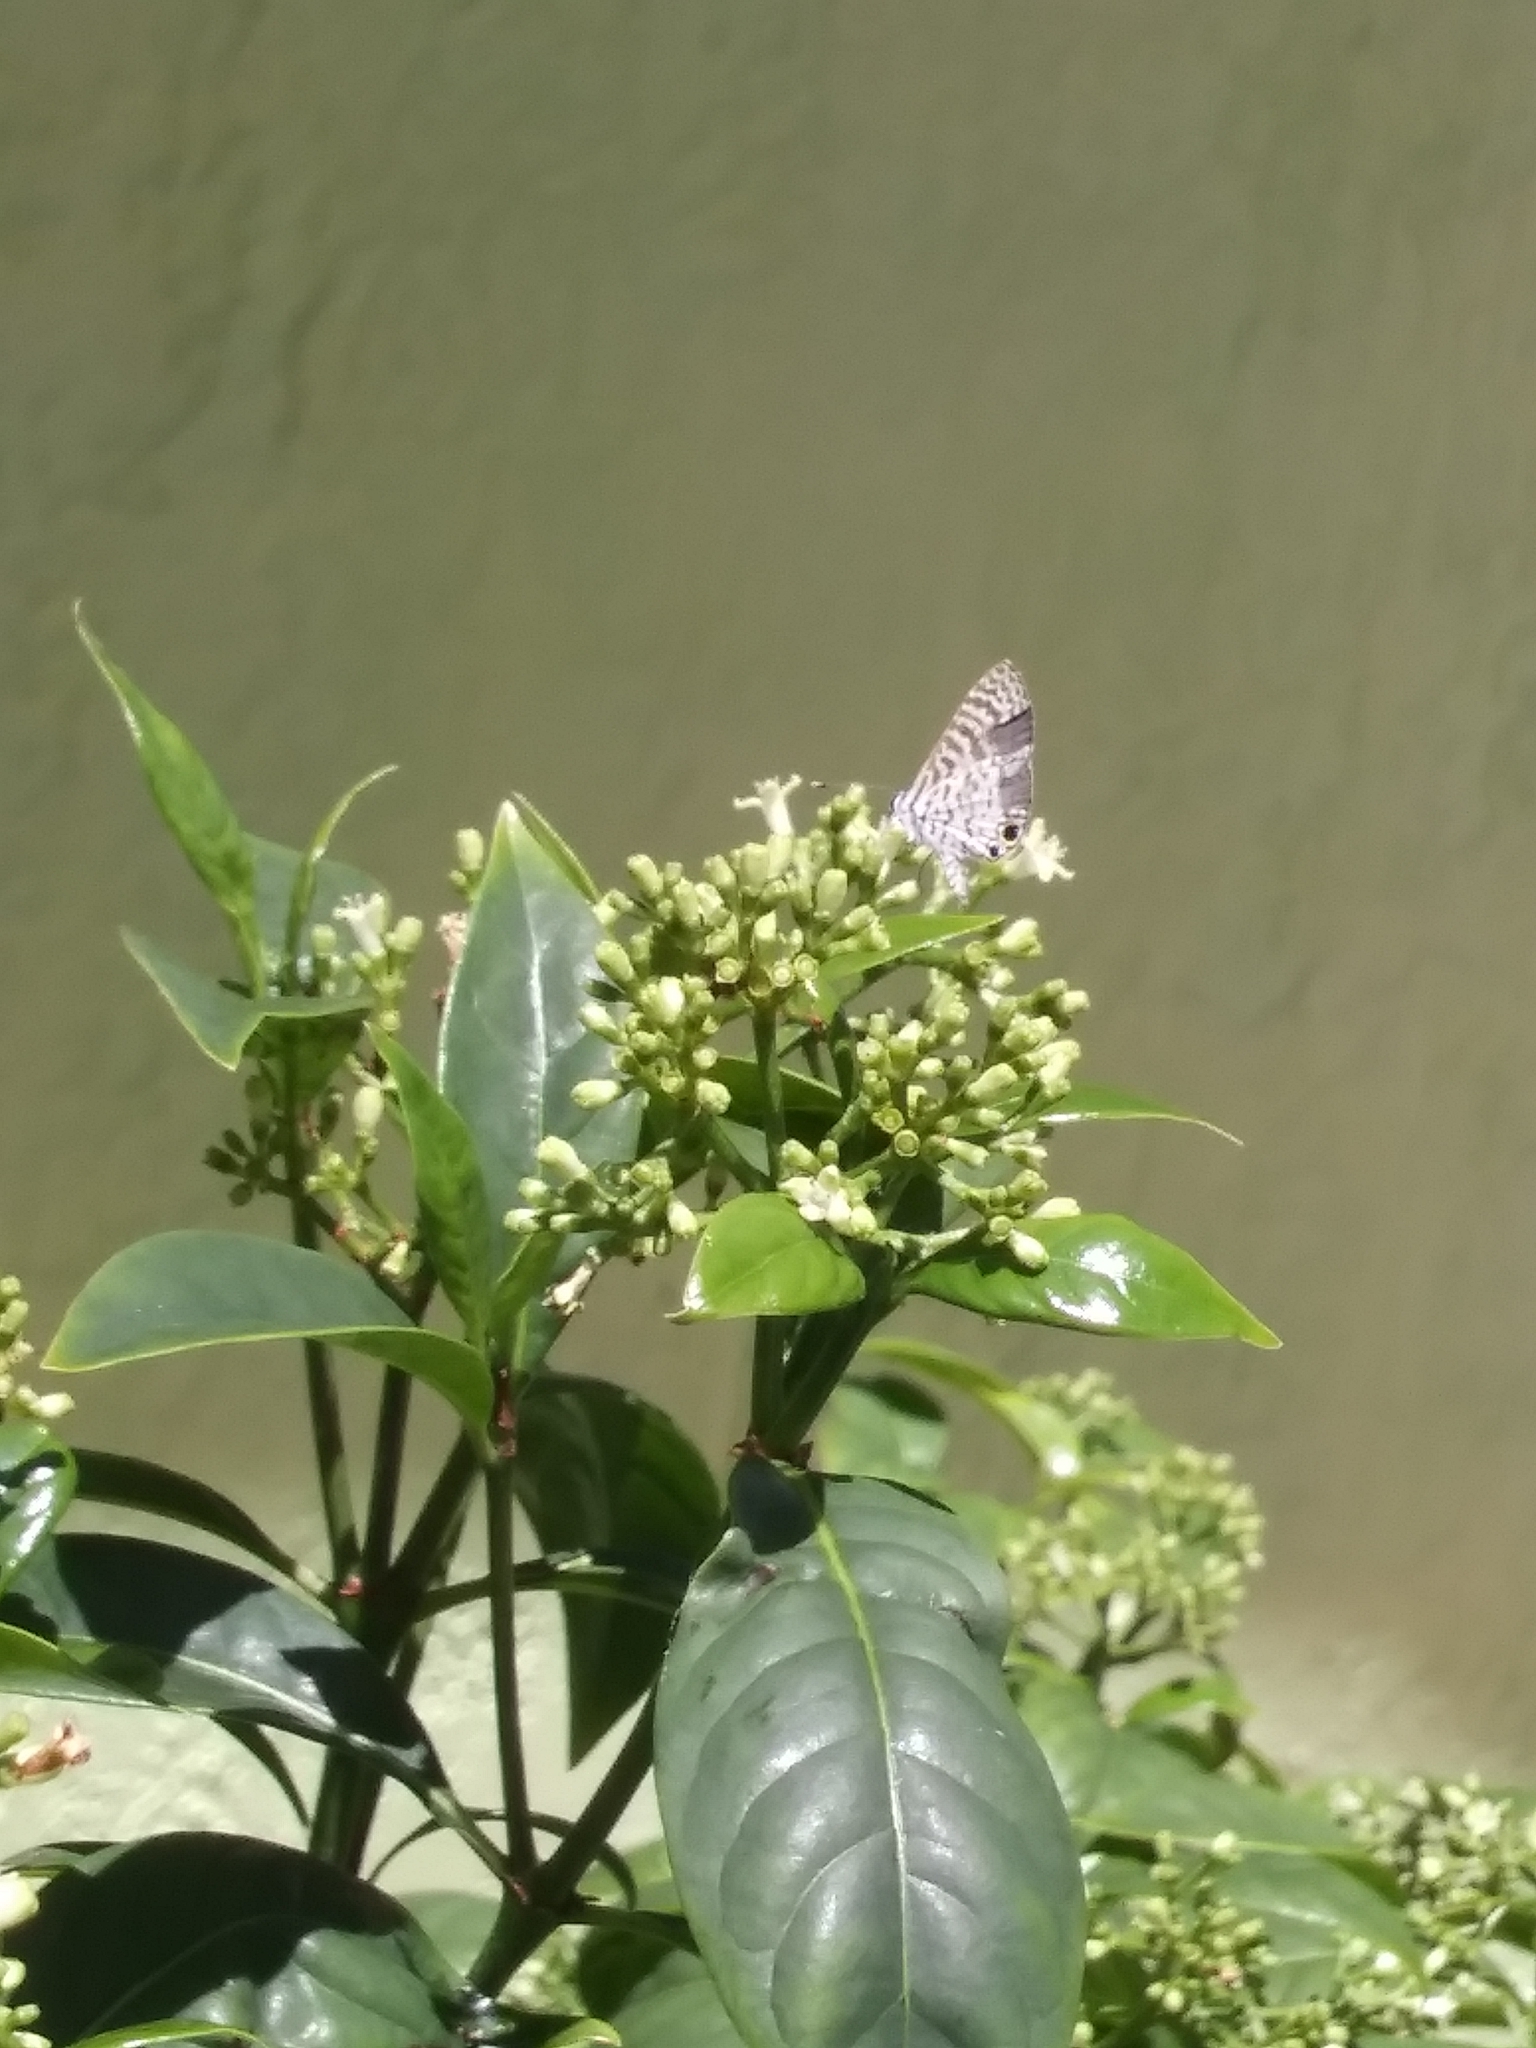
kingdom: Animalia
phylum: Arthropoda
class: Insecta
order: Lepidoptera
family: Lycaenidae
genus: Leptotes
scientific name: Leptotes cassius
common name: Cassius blue
